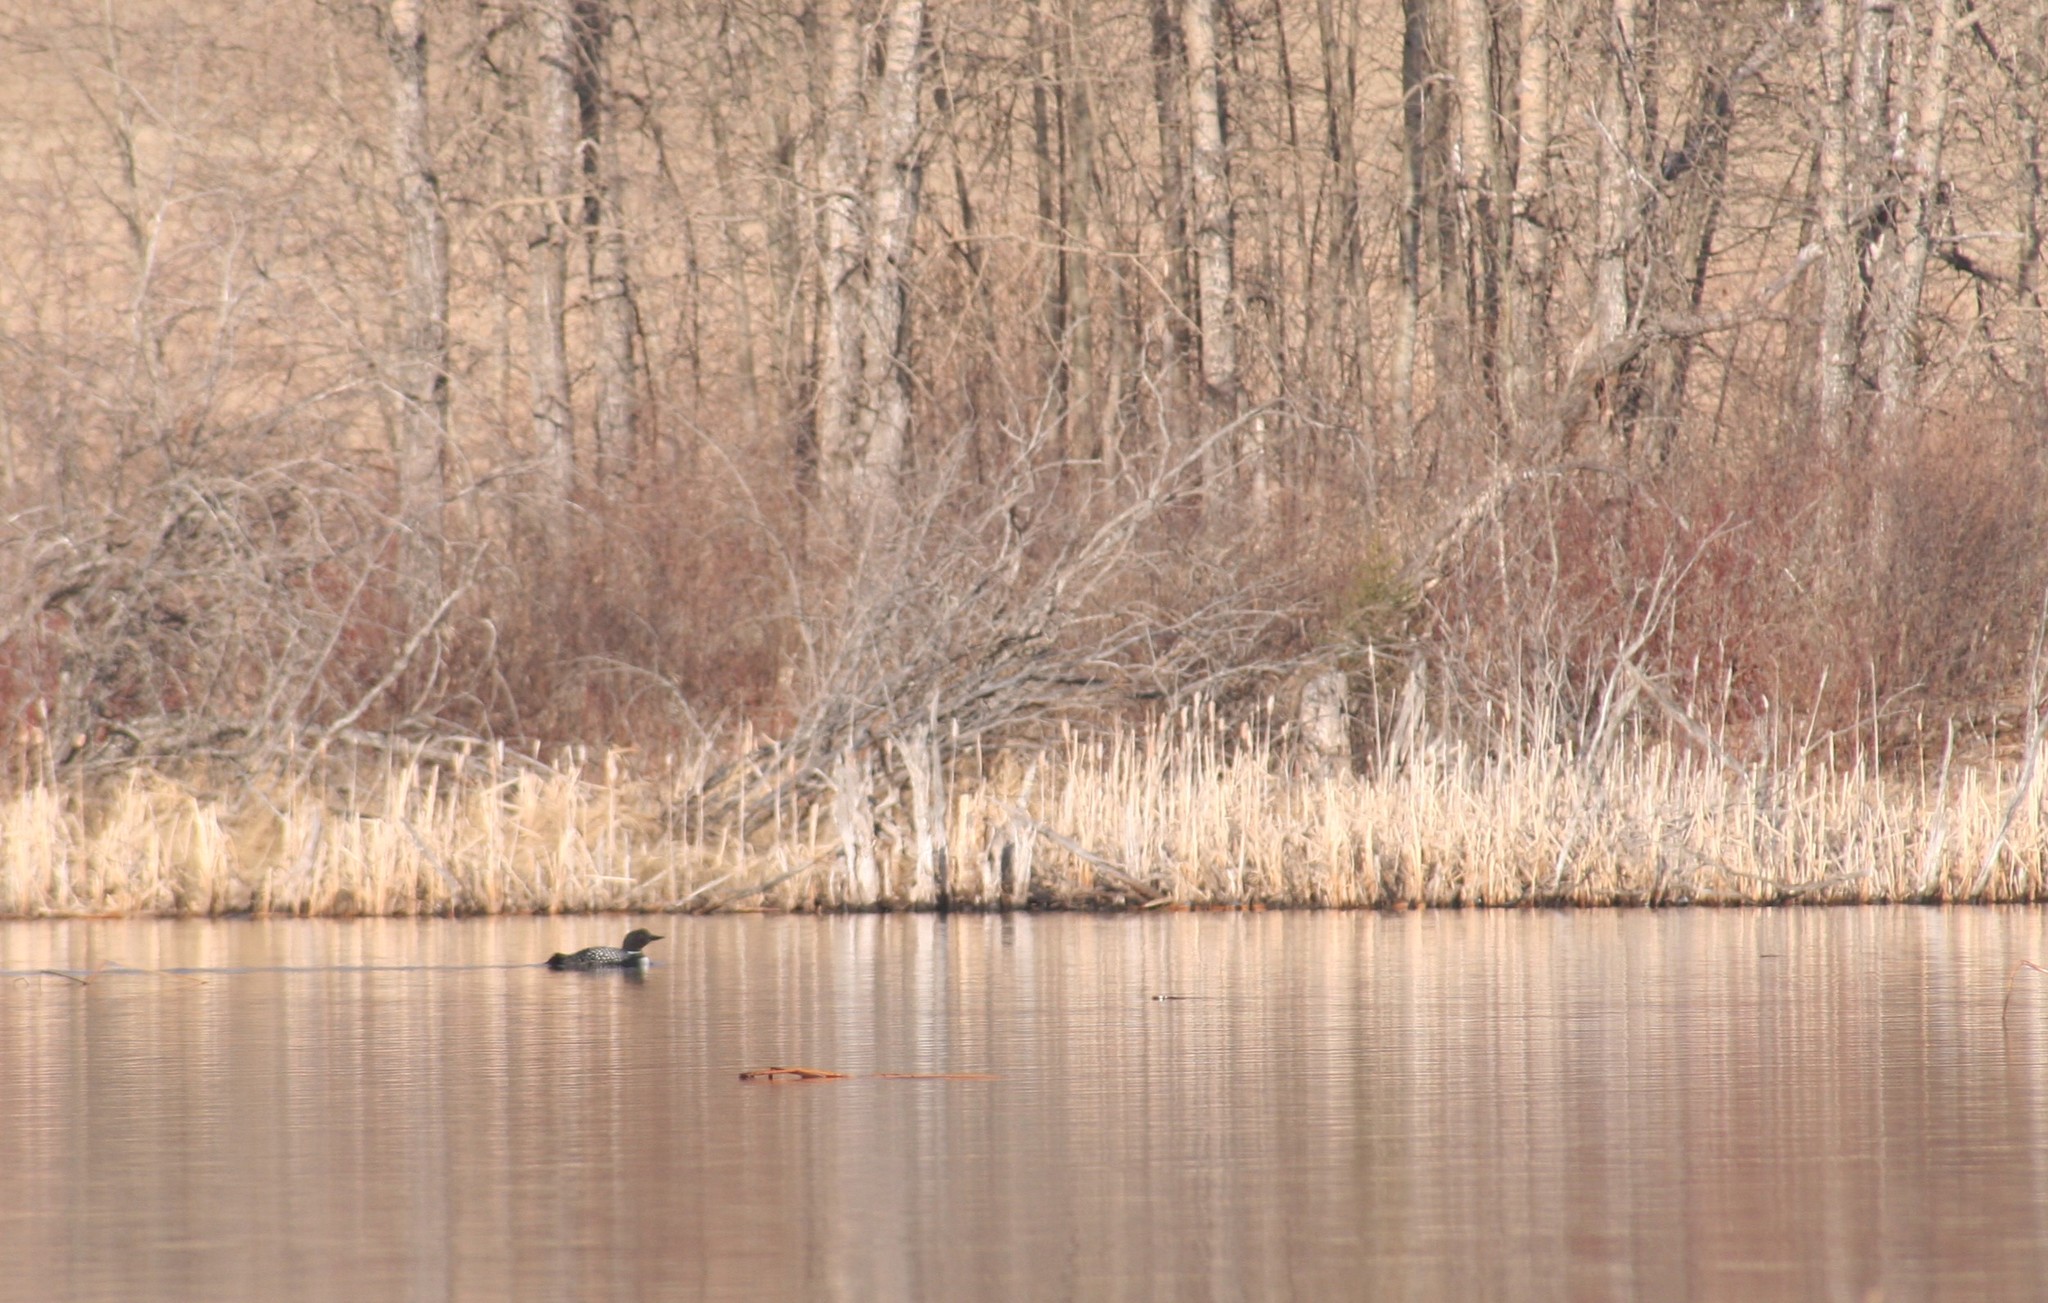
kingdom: Animalia
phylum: Chordata
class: Aves
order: Gaviiformes
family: Gaviidae
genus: Gavia
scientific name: Gavia immer
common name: Common loon
